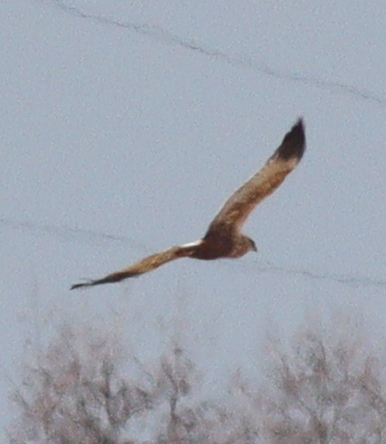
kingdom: Animalia
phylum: Chordata
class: Aves
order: Accipitriformes
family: Accipitridae
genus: Circus
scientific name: Circus aeruginosus
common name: Western marsh harrier
